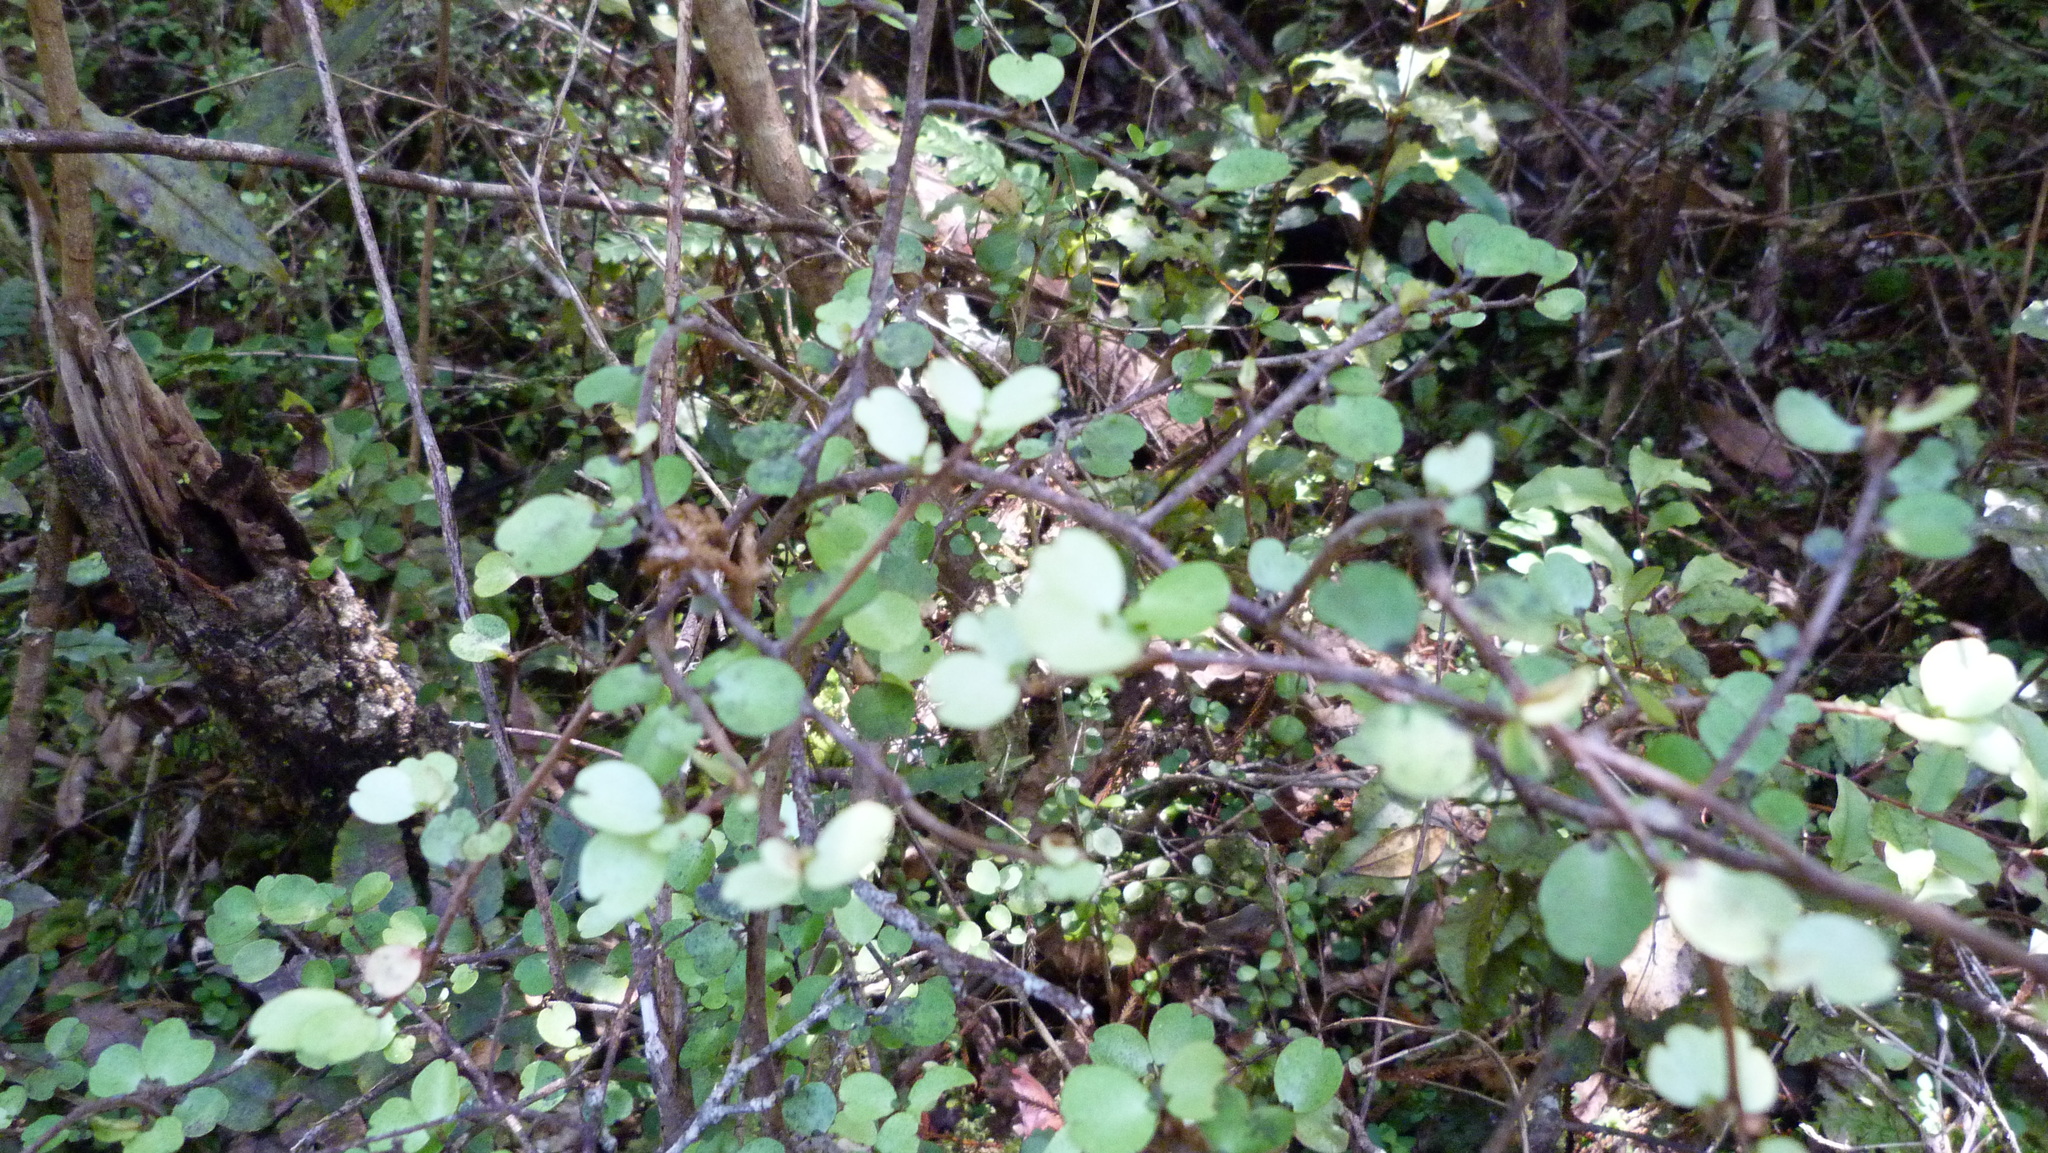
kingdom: Plantae
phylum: Tracheophyta
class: Magnoliopsida
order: Ericales
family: Primulaceae
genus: Myrsine
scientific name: Myrsine divaricata
